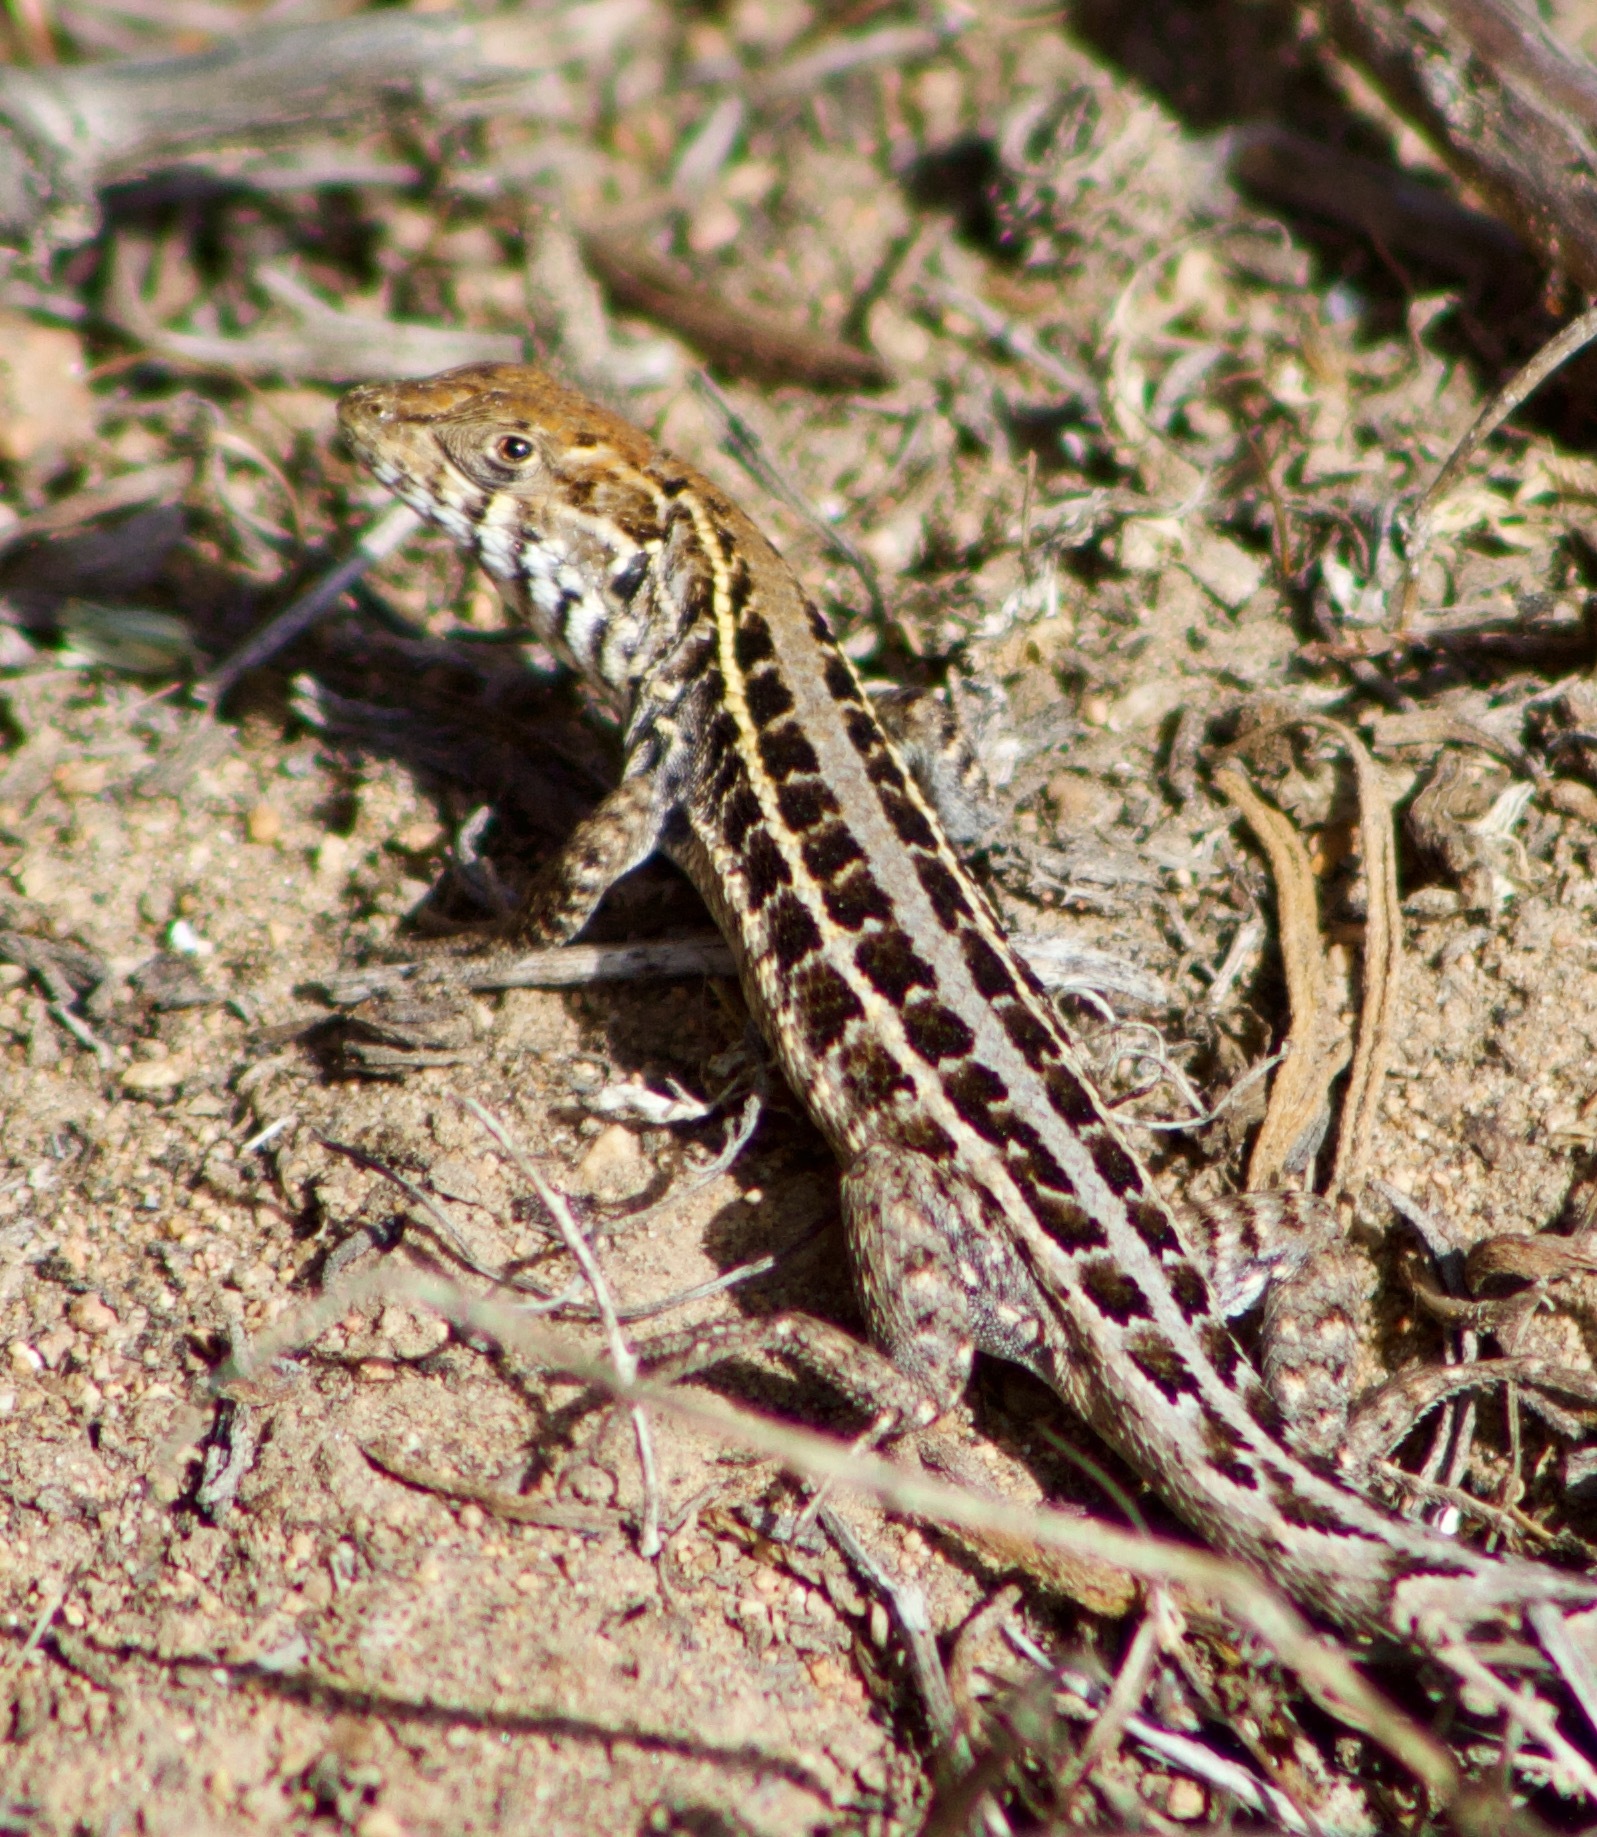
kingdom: Animalia
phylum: Chordata
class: Squamata
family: Liolaemidae
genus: Liolaemus
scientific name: Liolaemus pseudolemniscatus
